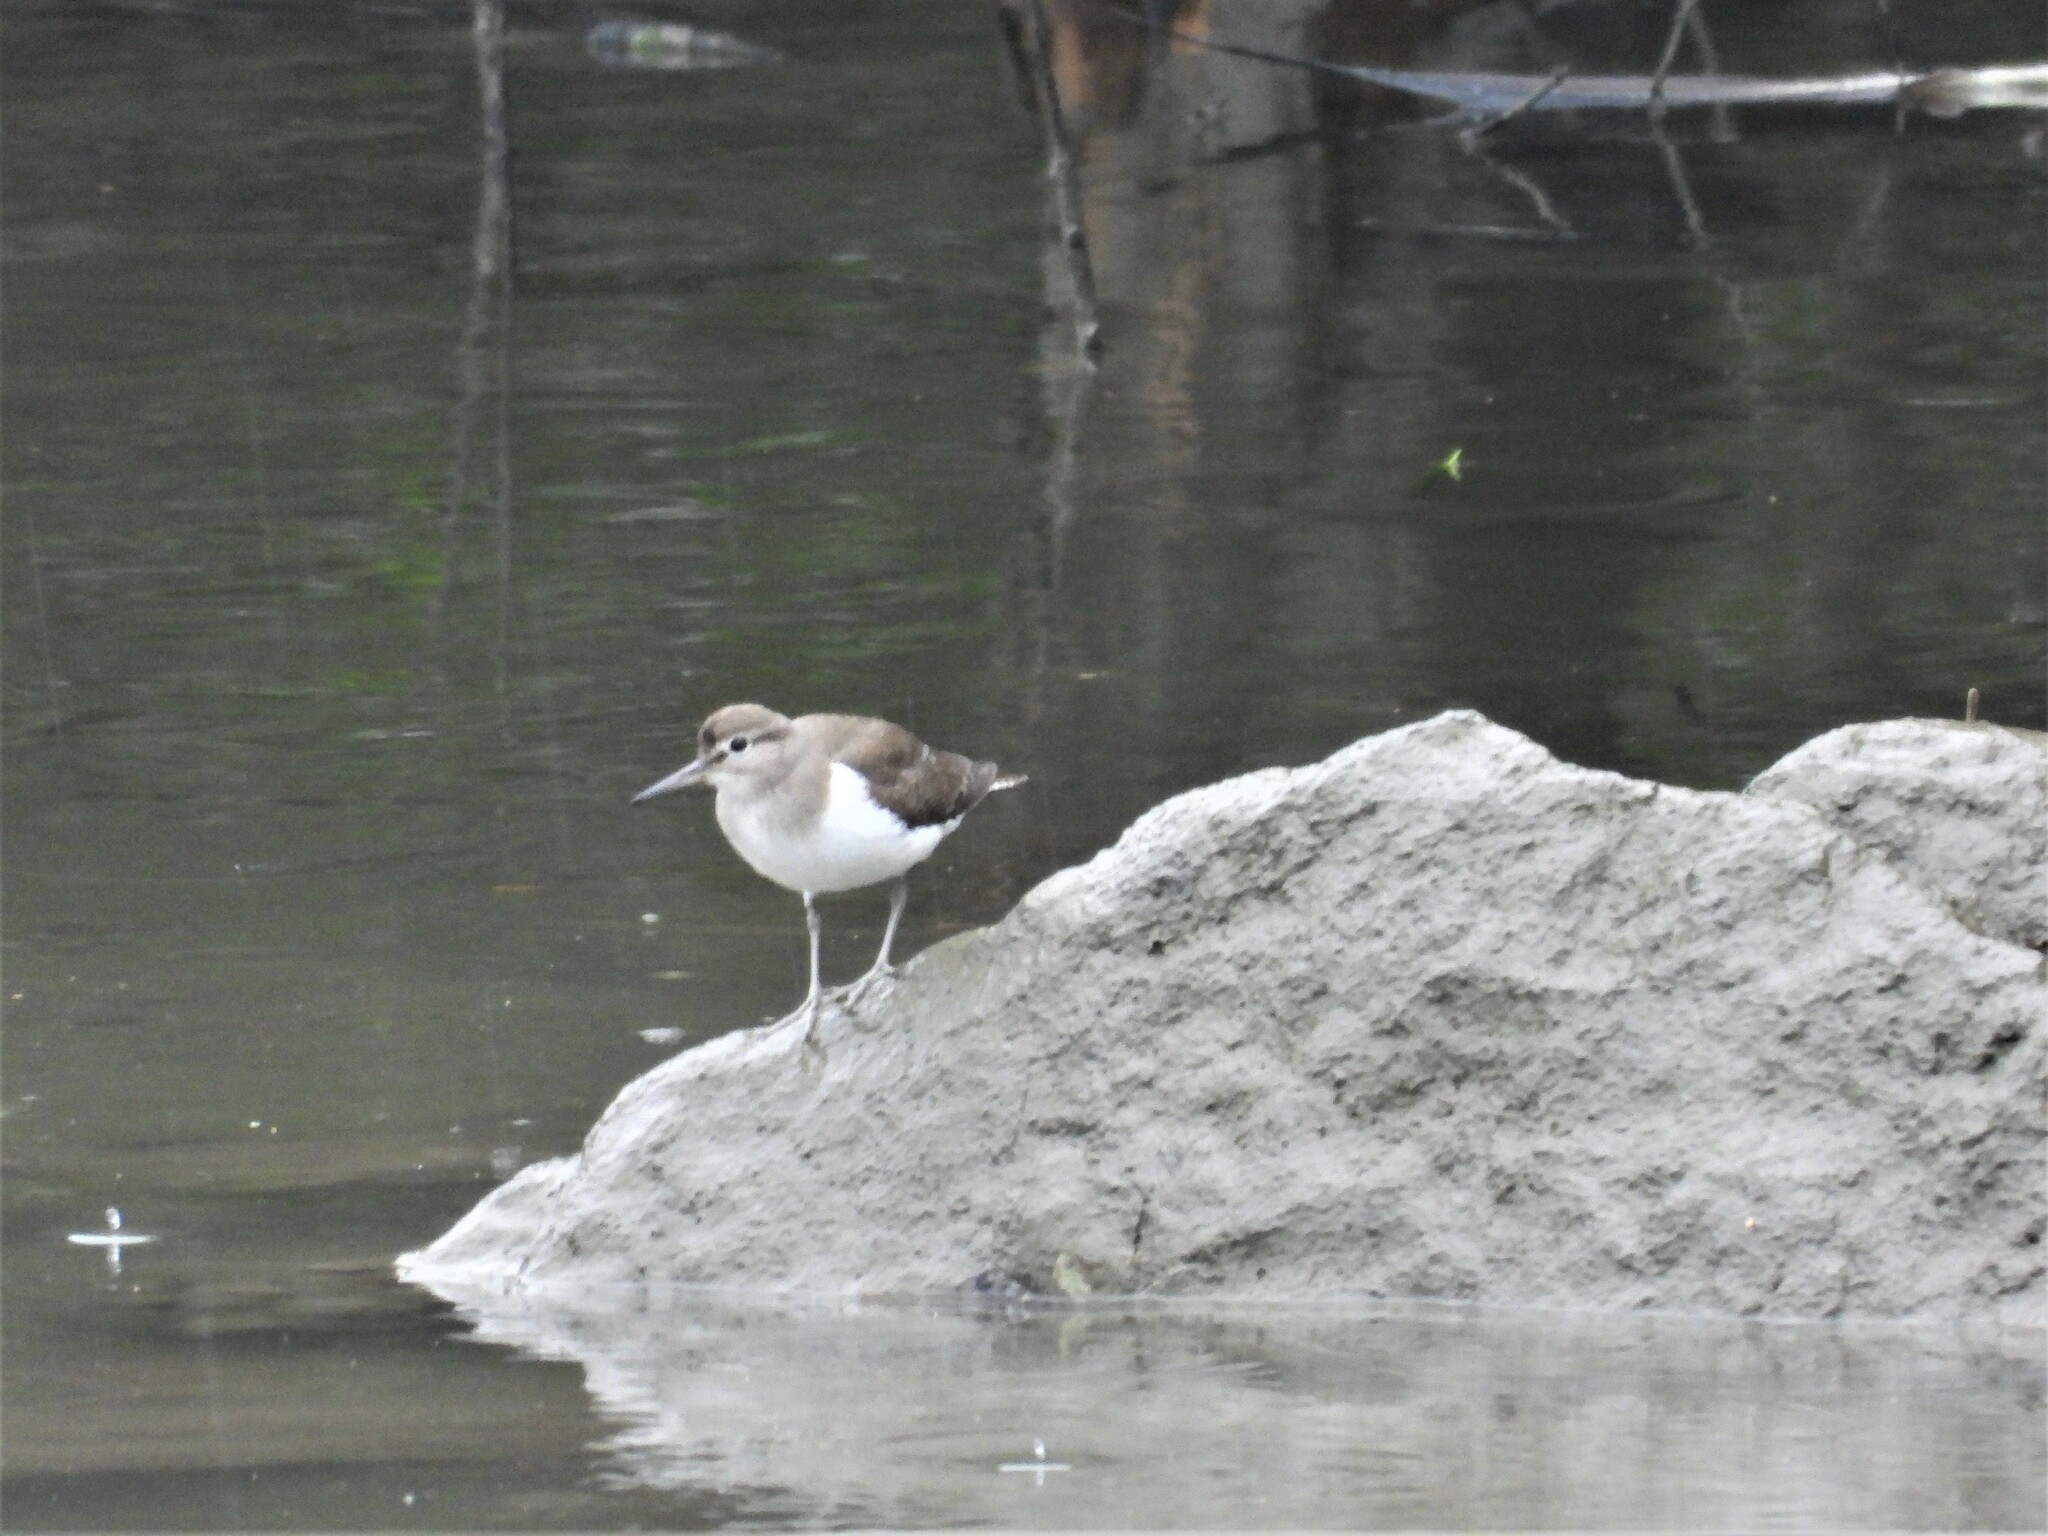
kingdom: Animalia
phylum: Chordata
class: Aves
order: Charadriiformes
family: Scolopacidae
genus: Actitis
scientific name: Actitis hypoleucos
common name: Common sandpiper
